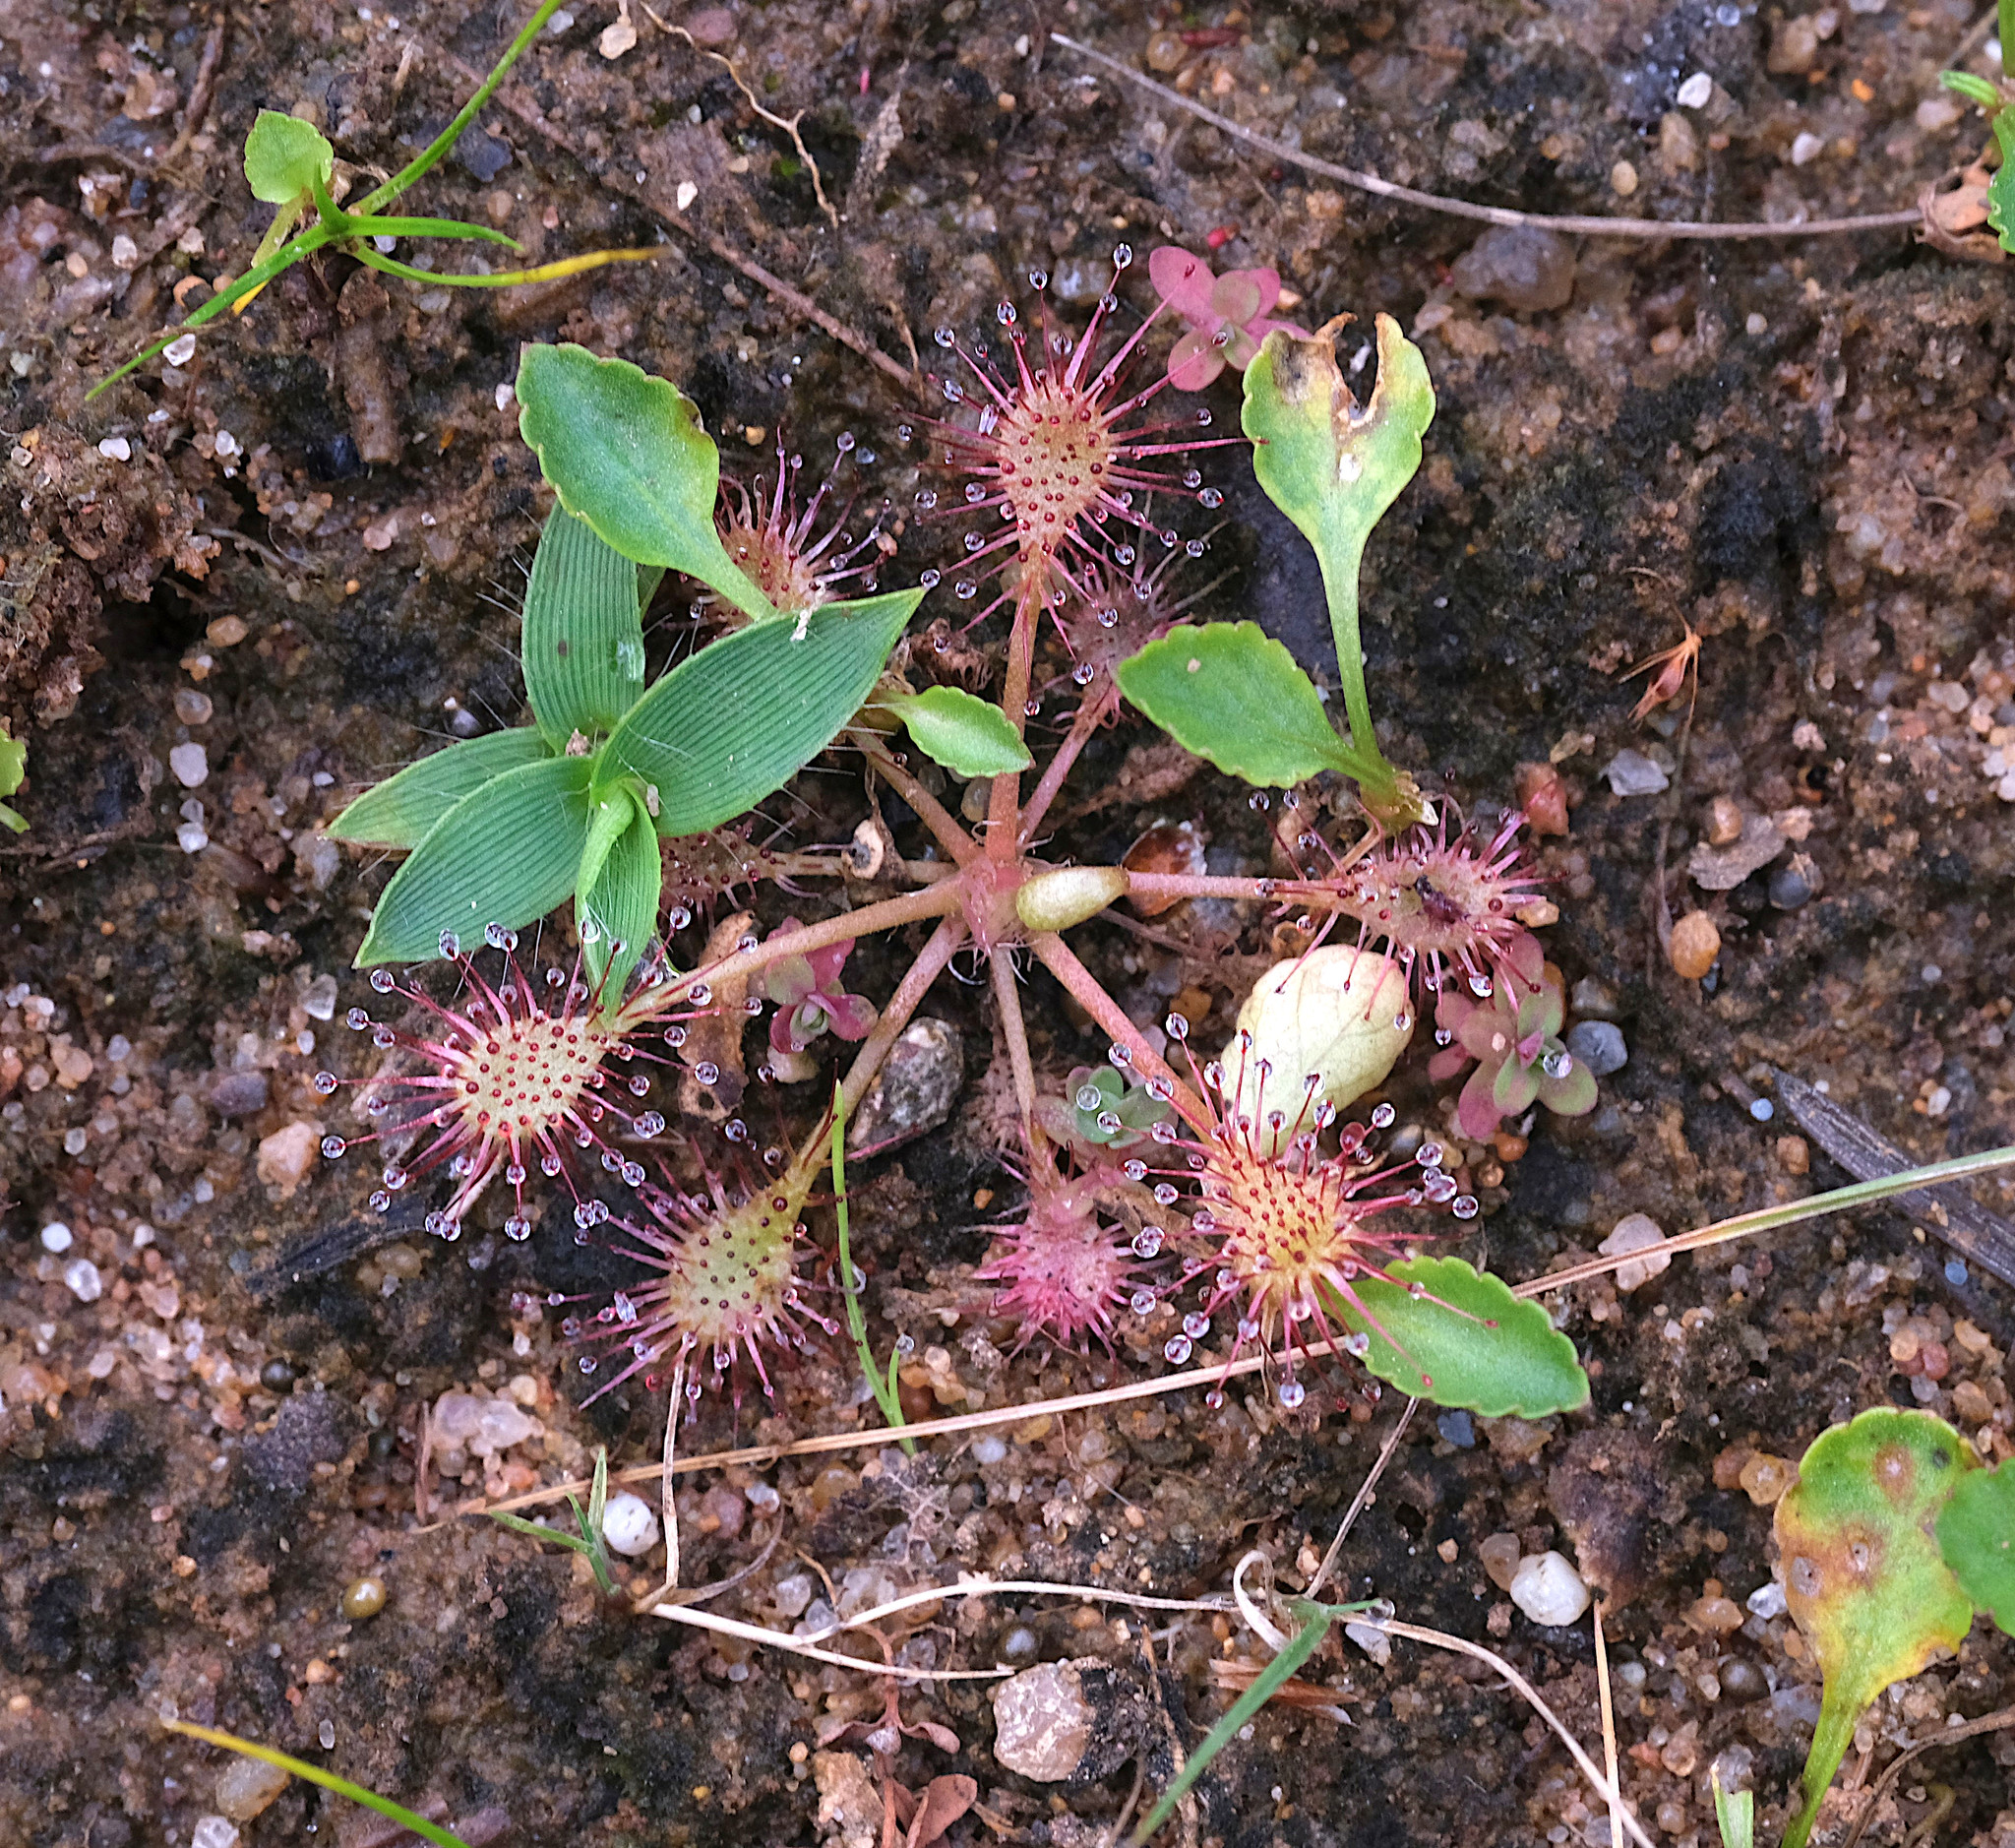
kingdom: Plantae
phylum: Tracheophyta
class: Magnoliopsida
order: Caryophyllales
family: Droseraceae
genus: Drosera
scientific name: Drosera intermedia
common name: Oblong-leaved sundew
